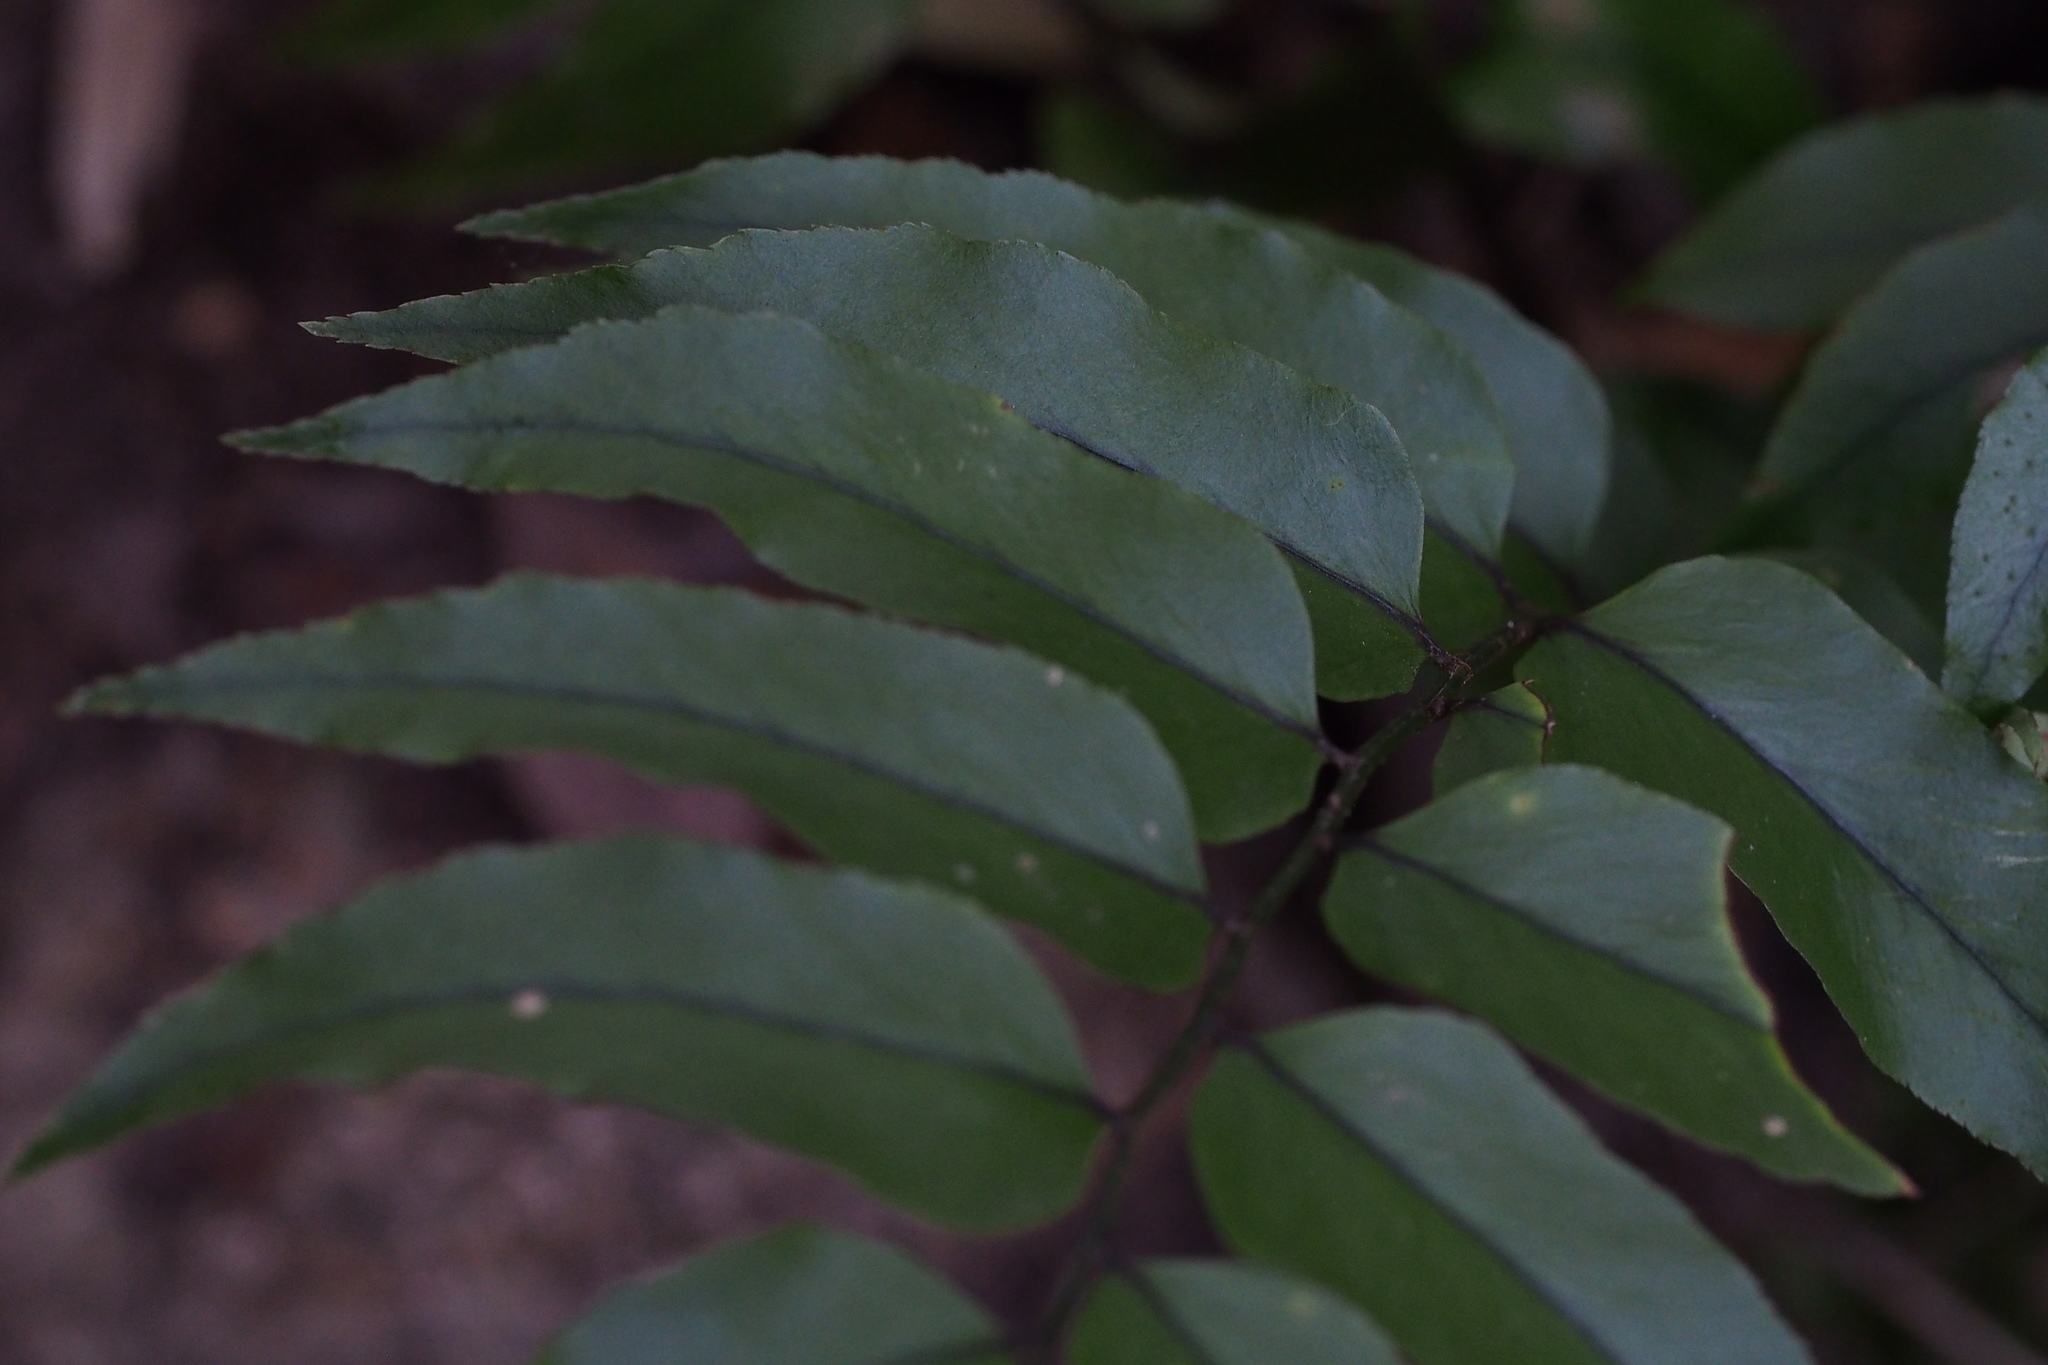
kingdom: Plantae
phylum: Tracheophyta
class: Polypodiopsida
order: Polypodiales
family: Dryopteridaceae
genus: Cyrtomium
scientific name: Cyrtomium fortunei
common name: Asian netvein hollyfern
